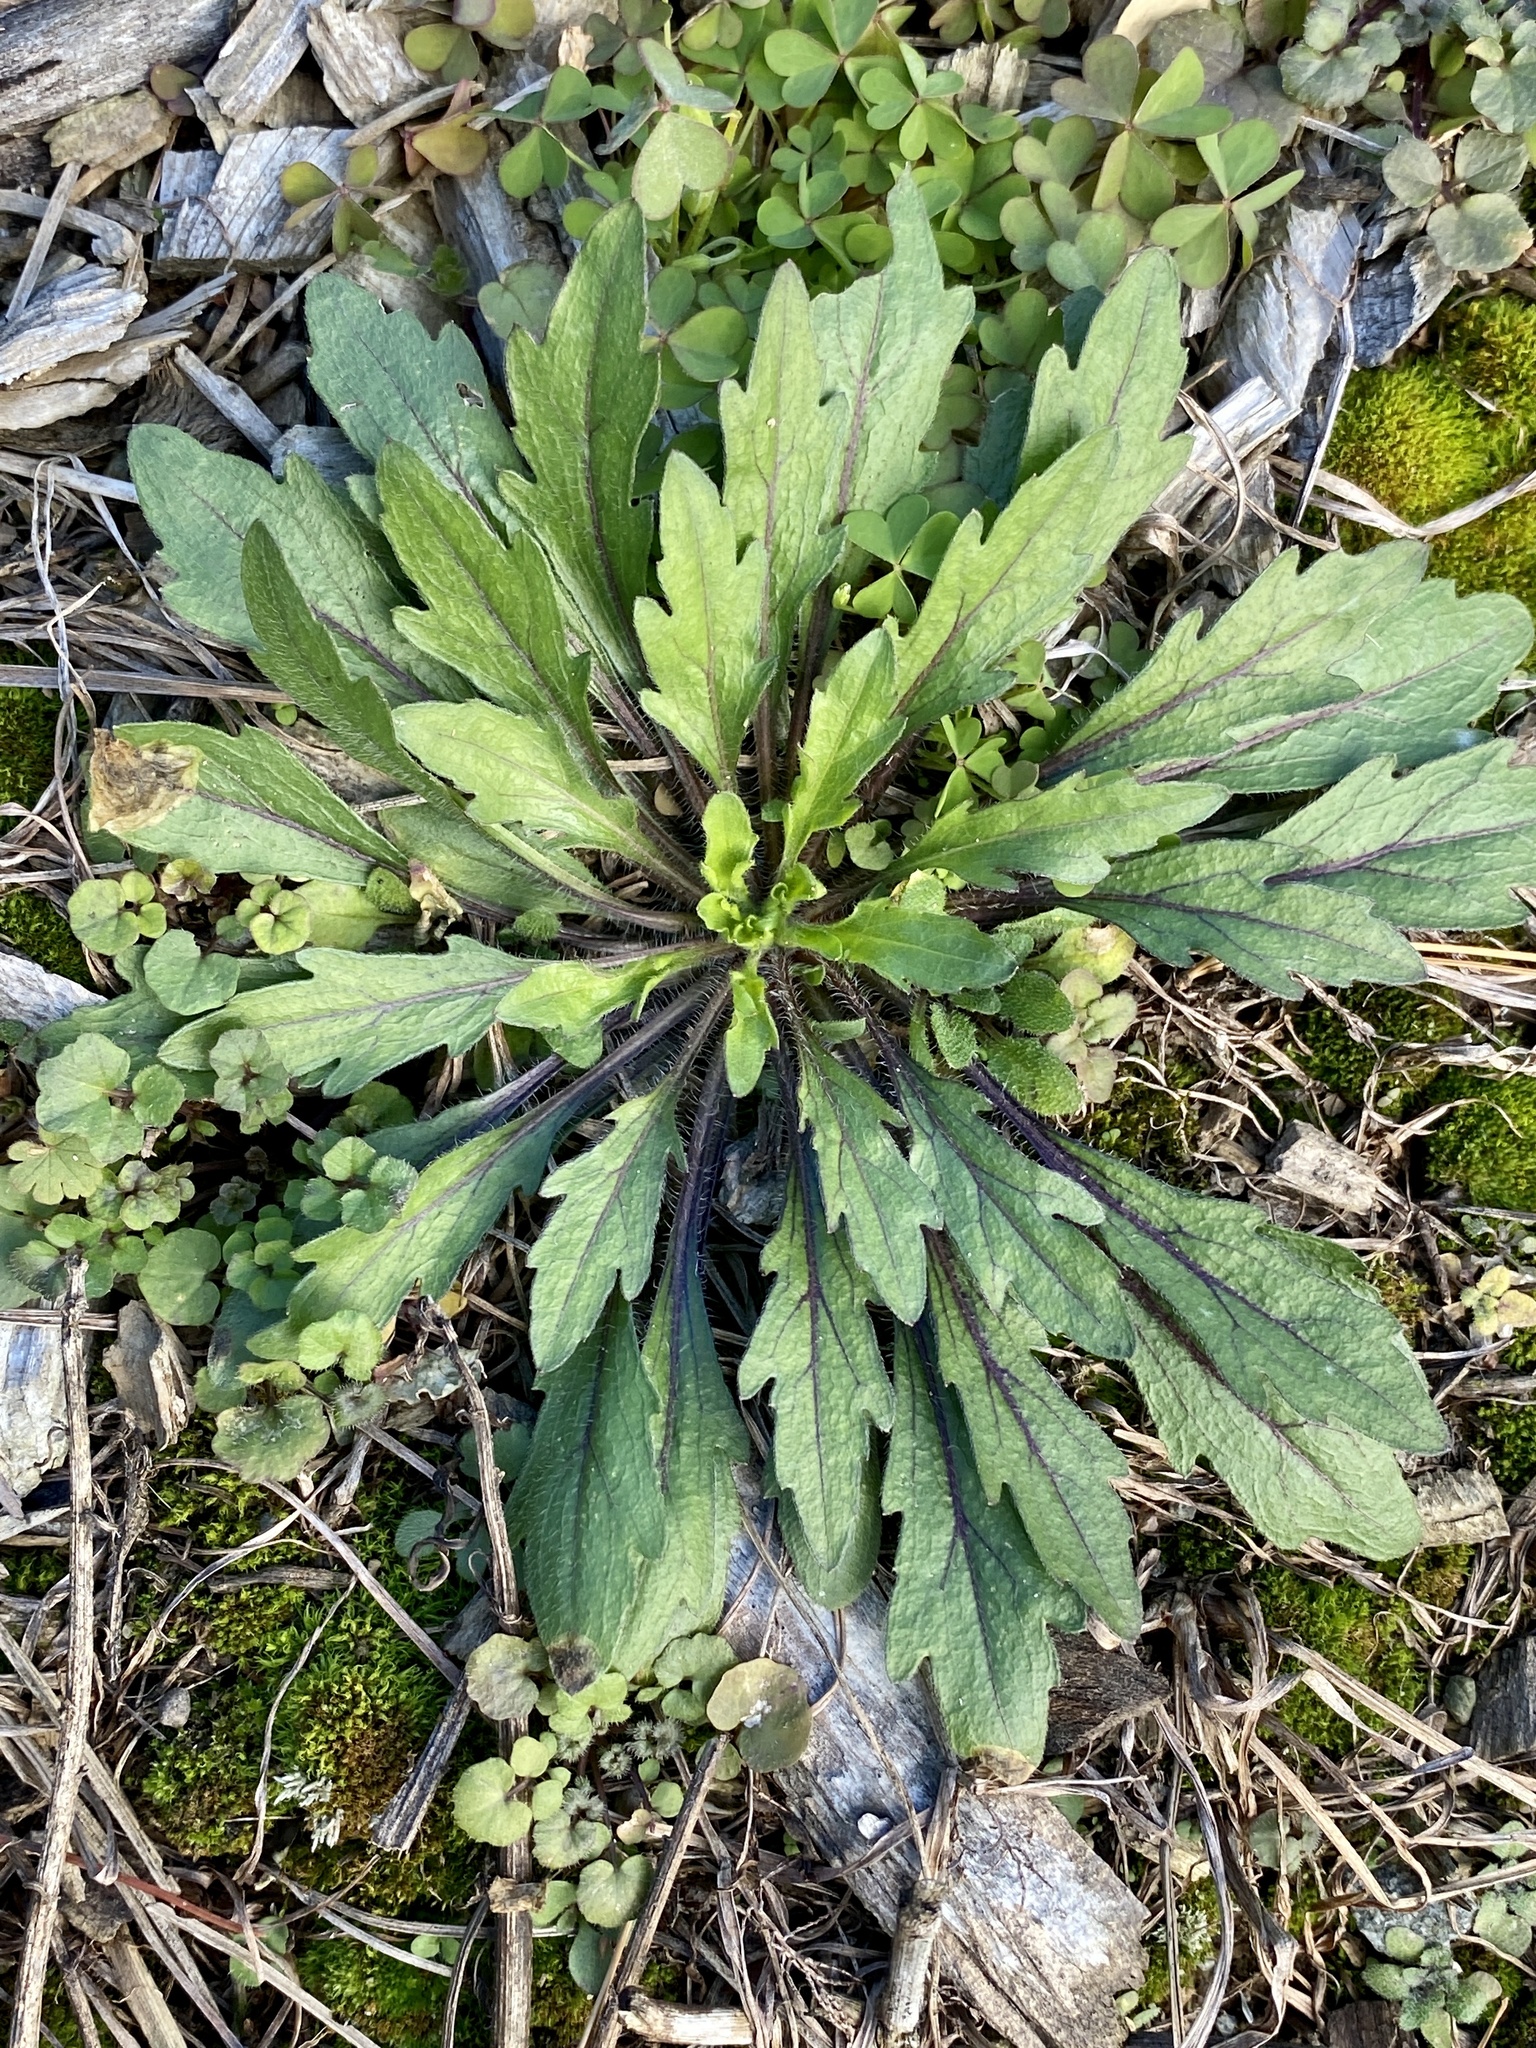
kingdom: Plantae
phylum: Tracheophyta
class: Magnoliopsida
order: Asterales
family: Asteraceae
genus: Erigeron
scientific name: Erigeron canadensis
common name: Canadian fleabane
